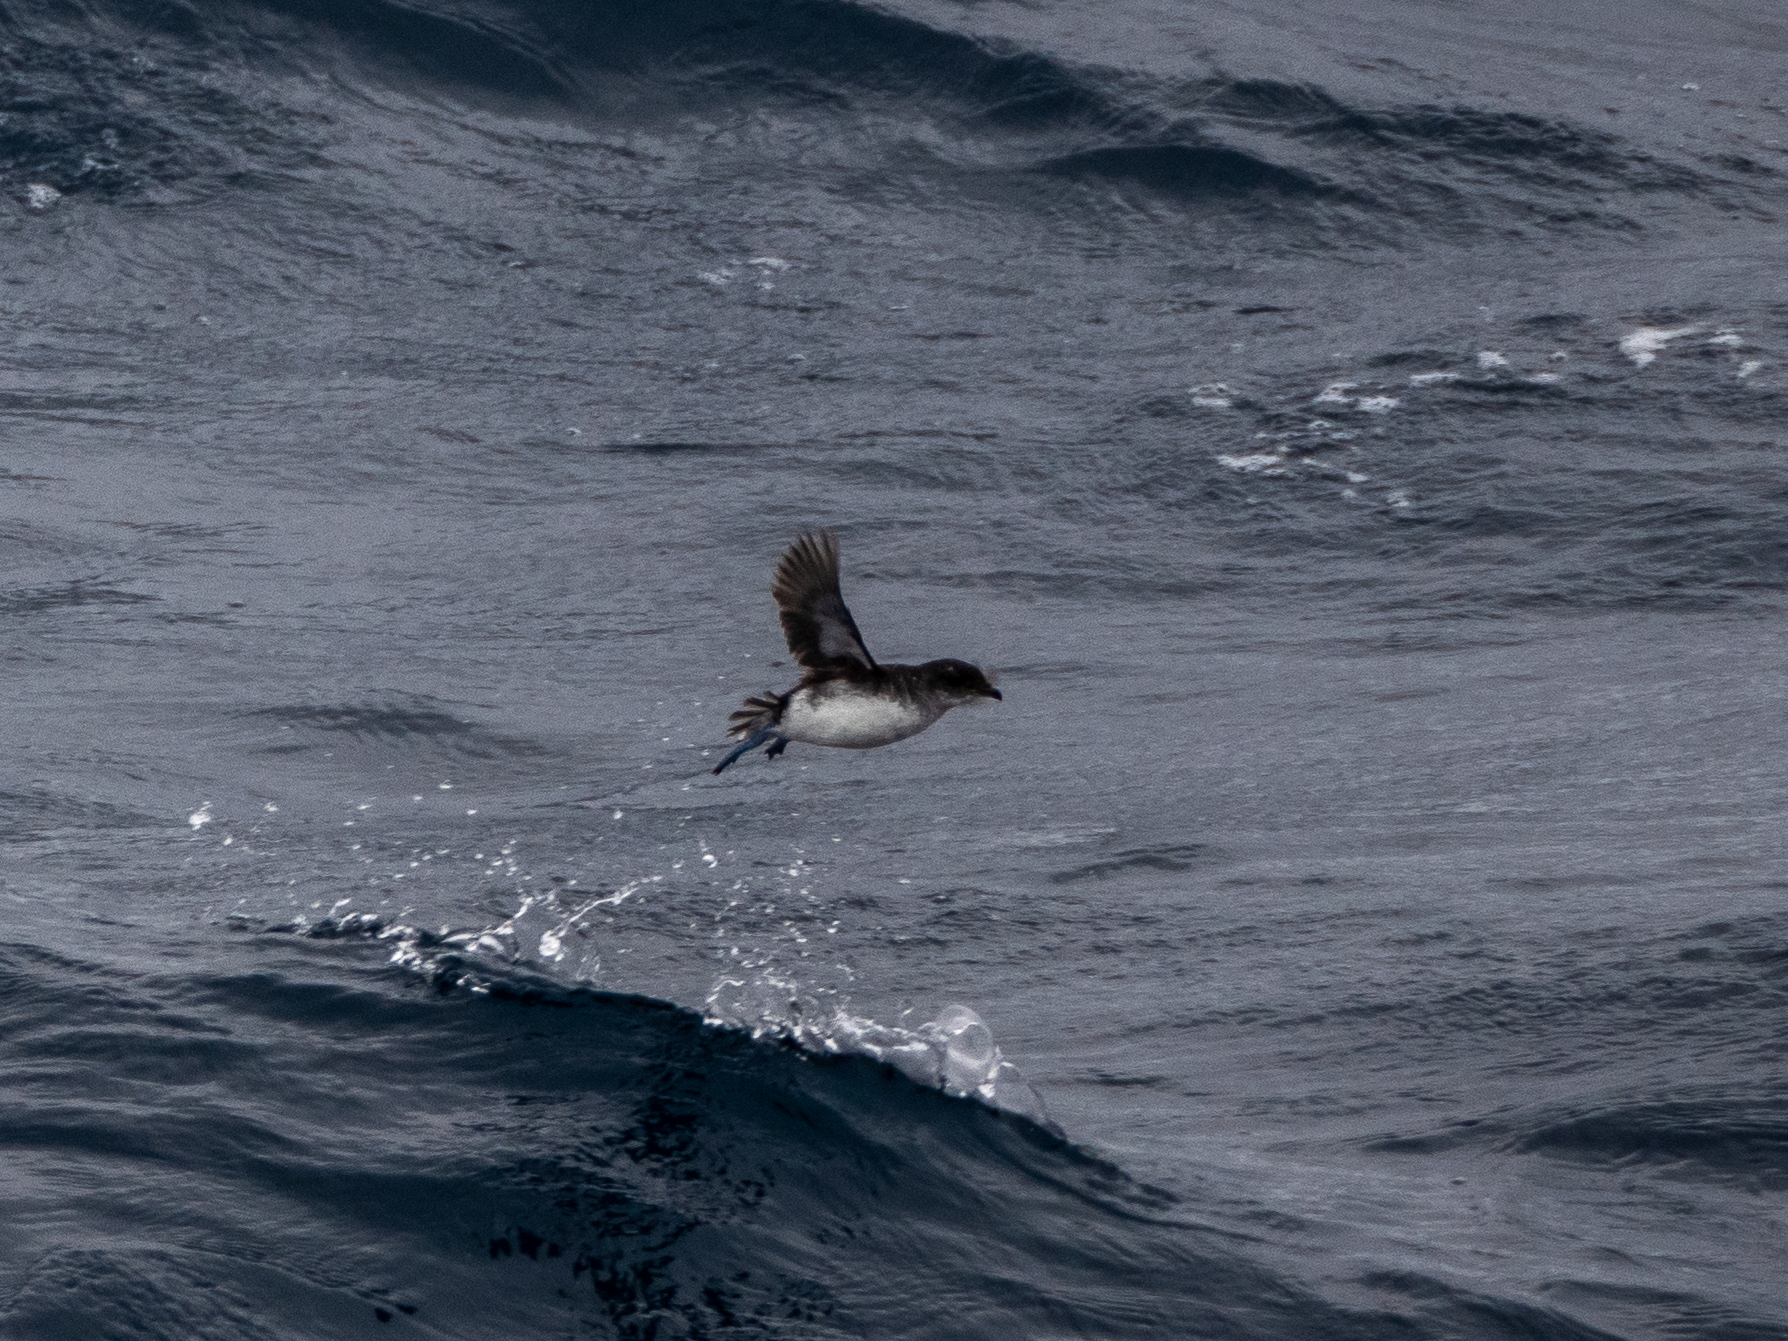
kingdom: Animalia
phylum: Chordata
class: Aves
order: Procellariiformes
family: Pelecanoididae
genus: Pelecanoides
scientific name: Pelecanoides urinatrix
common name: Common diving-petrel
